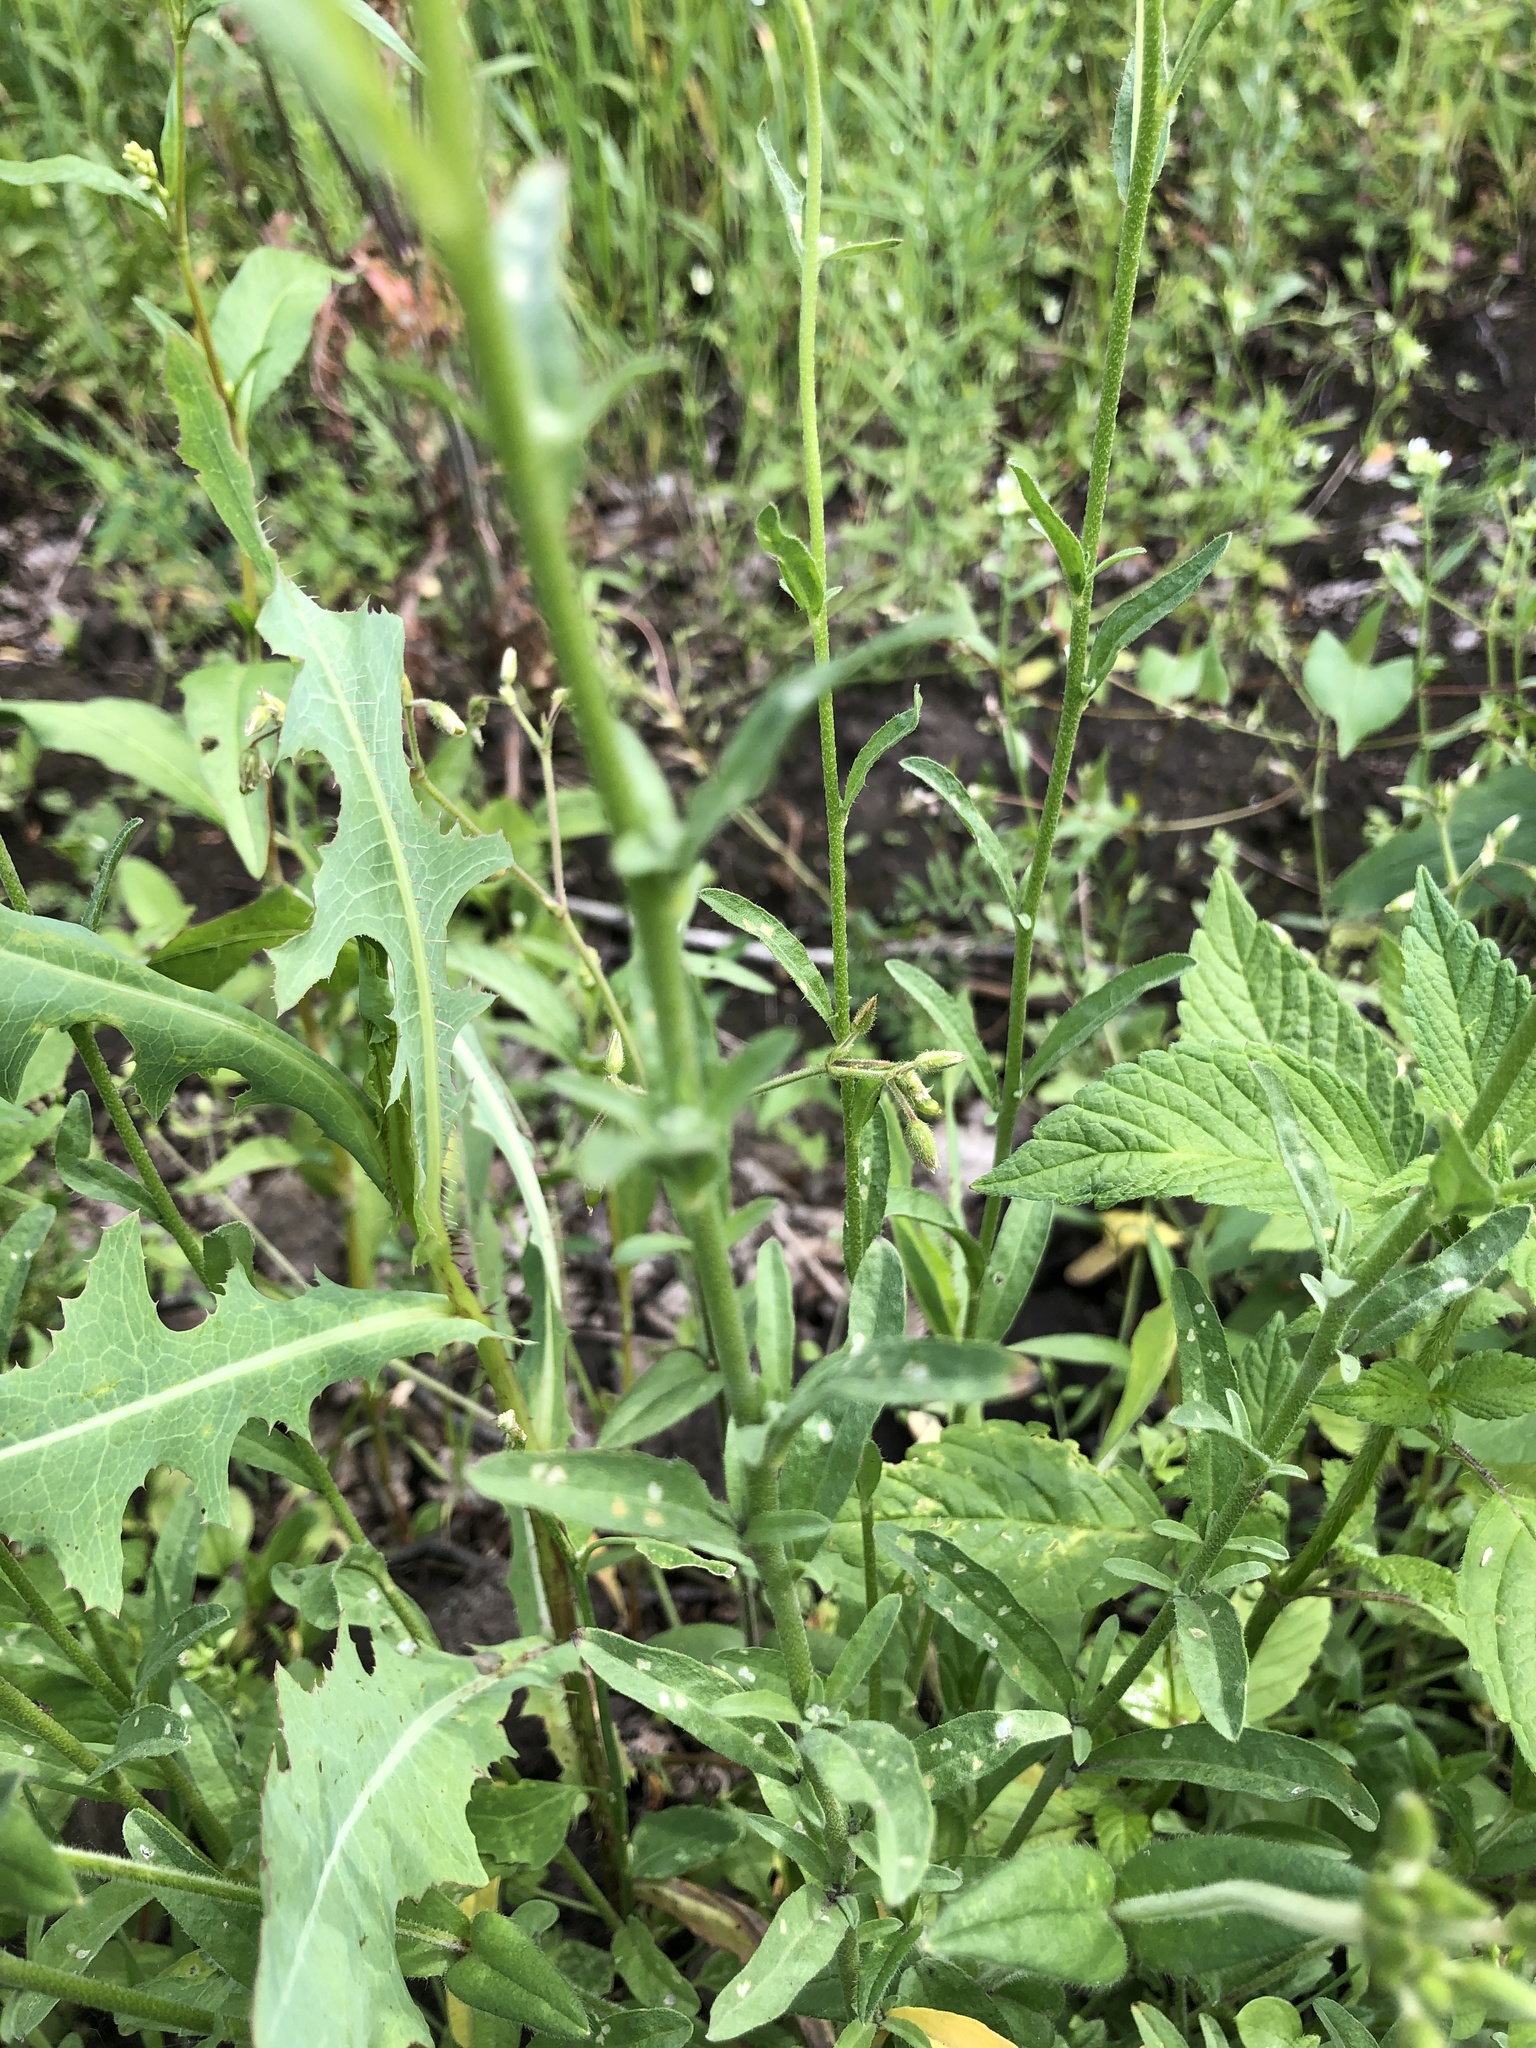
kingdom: Plantae
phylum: Tracheophyta
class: Magnoliopsida
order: Brassicales
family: Brassicaceae
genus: Berteroa
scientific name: Berteroa incana
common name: Hoary alison
